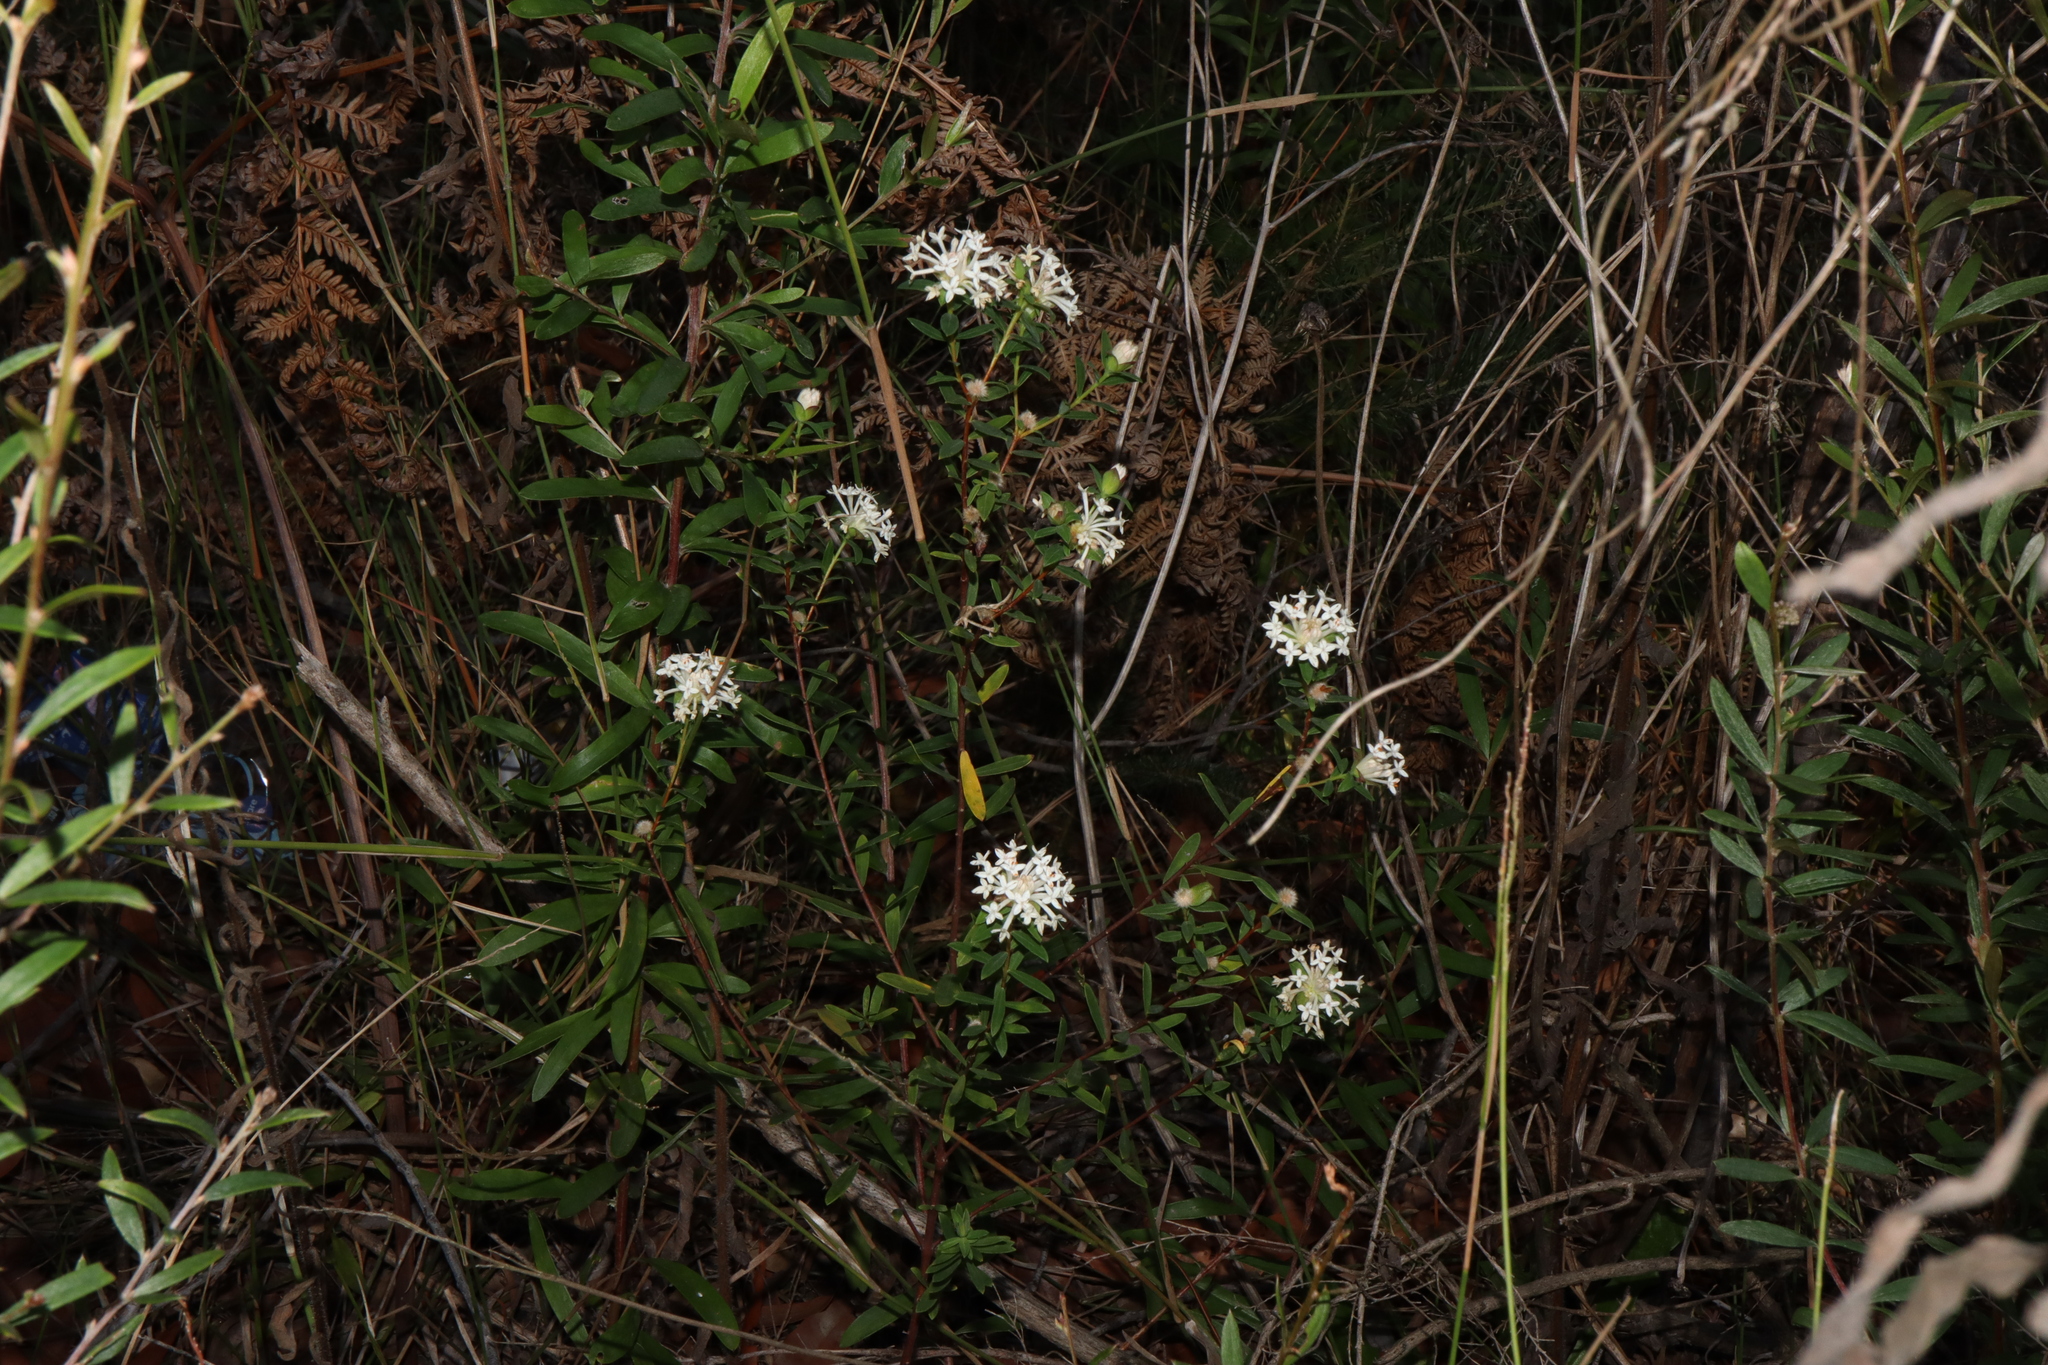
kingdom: Plantae
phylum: Tracheophyta
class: Magnoliopsida
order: Malvales
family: Thymelaeaceae
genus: Pimelea
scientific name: Pimelea linifolia
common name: Queen-of-the-bush
